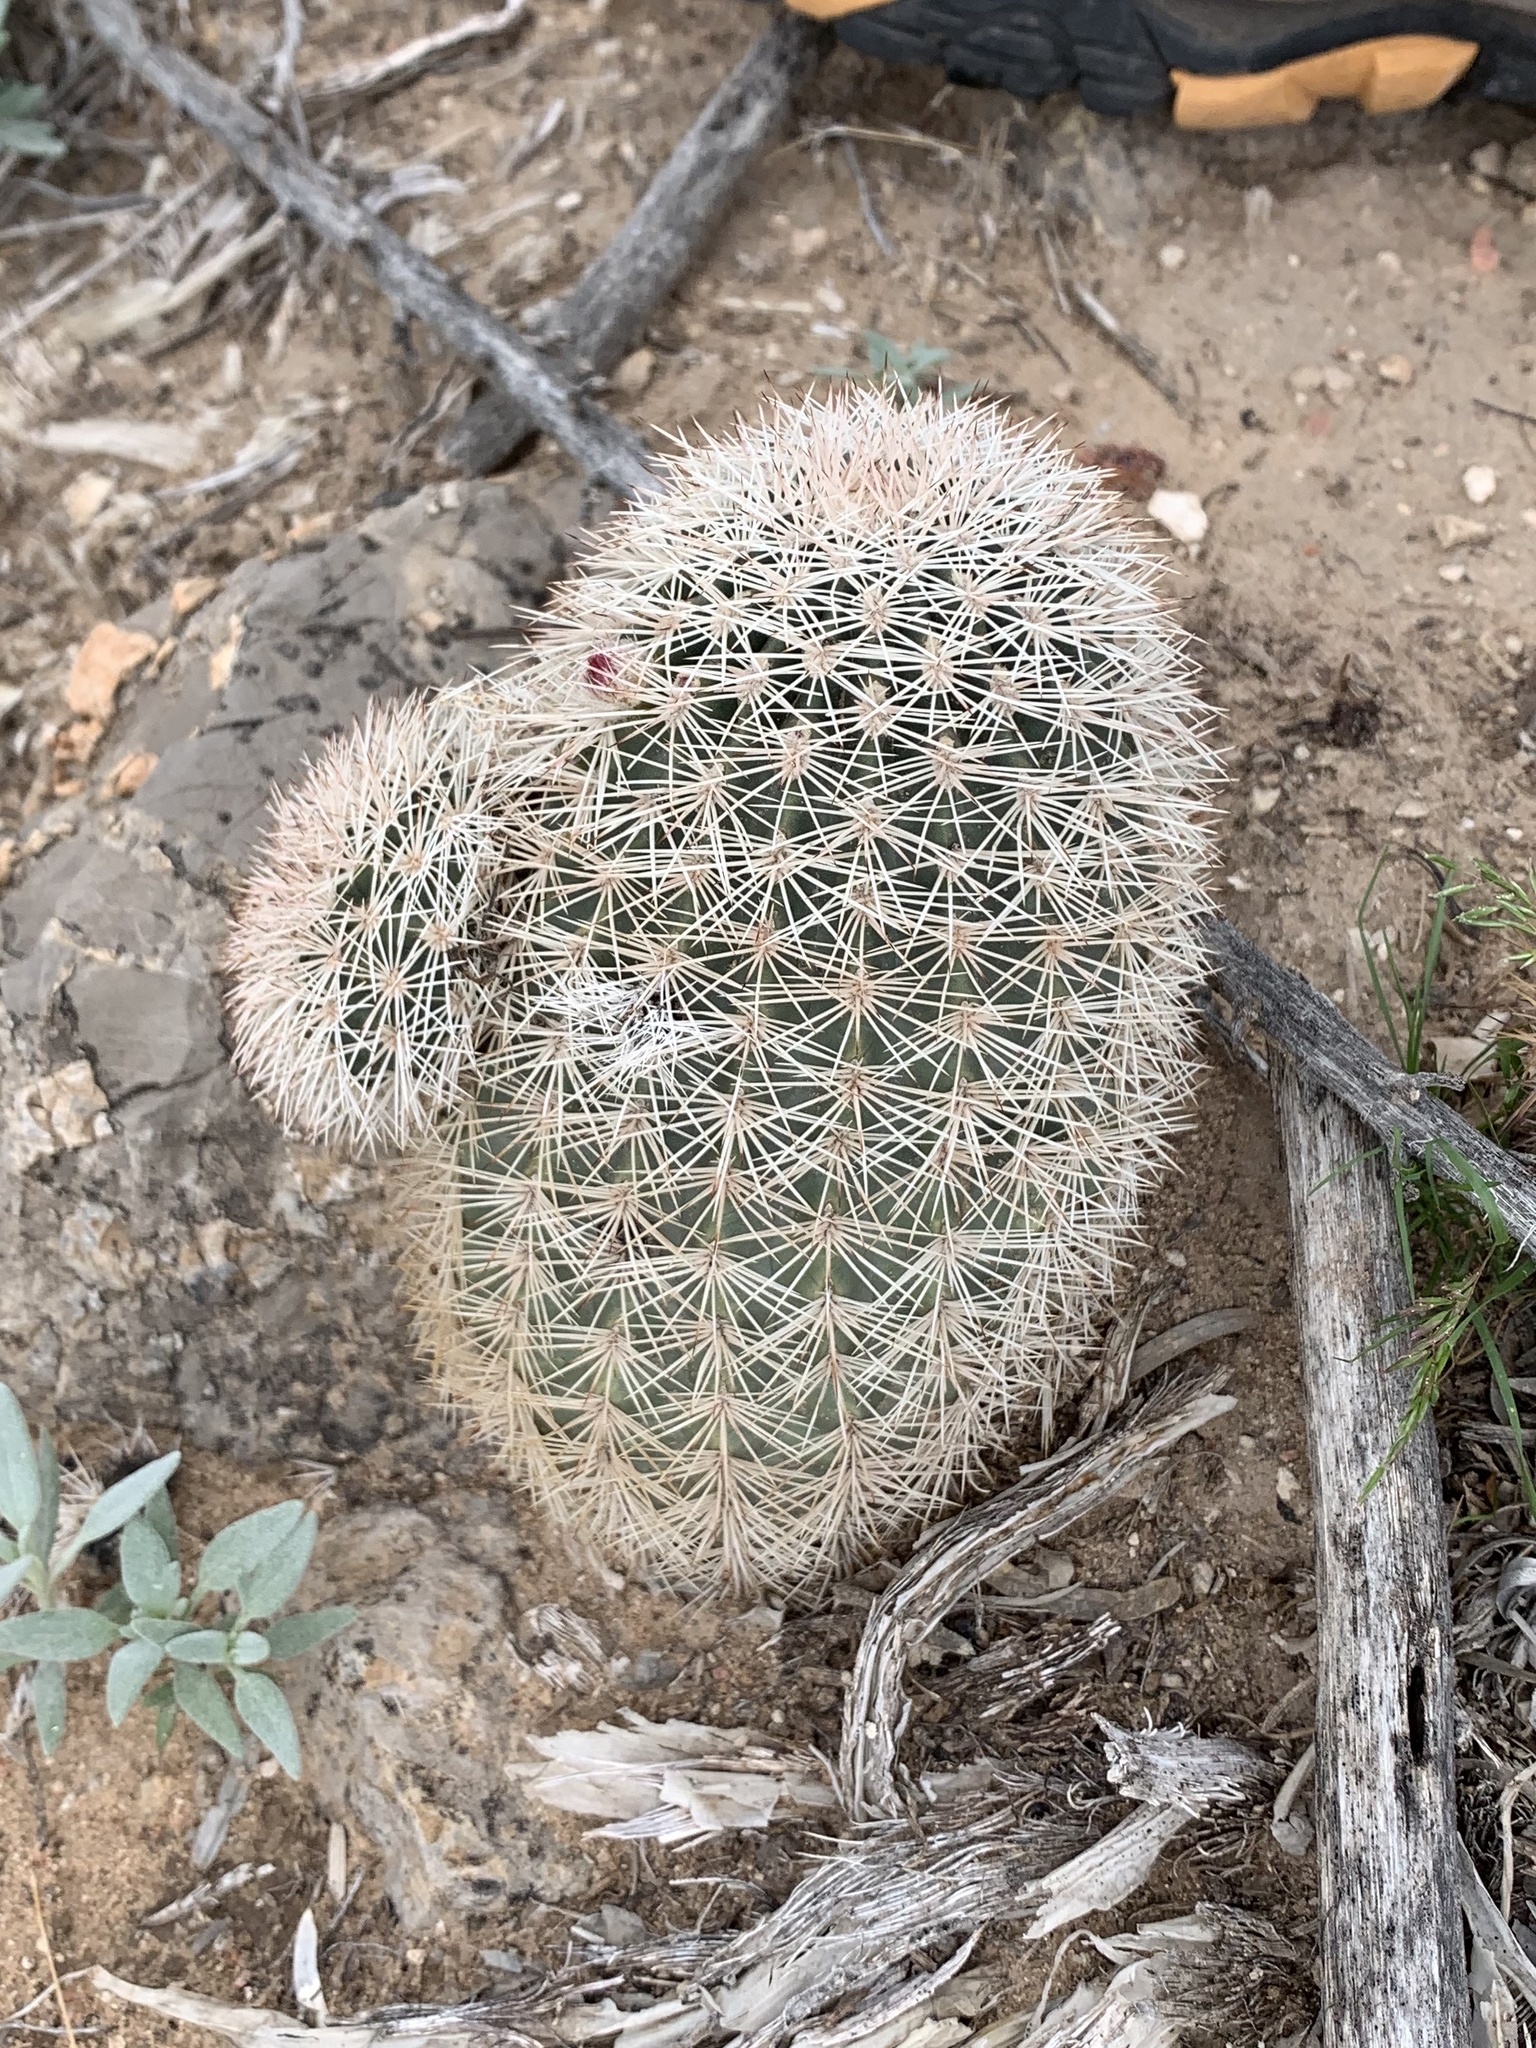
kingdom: Plantae
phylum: Tracheophyta
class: Magnoliopsida
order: Caryophyllales
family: Cactaceae
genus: Echinocereus
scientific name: Echinocereus dasyacanthus
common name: Spiny hedgehog cactus
